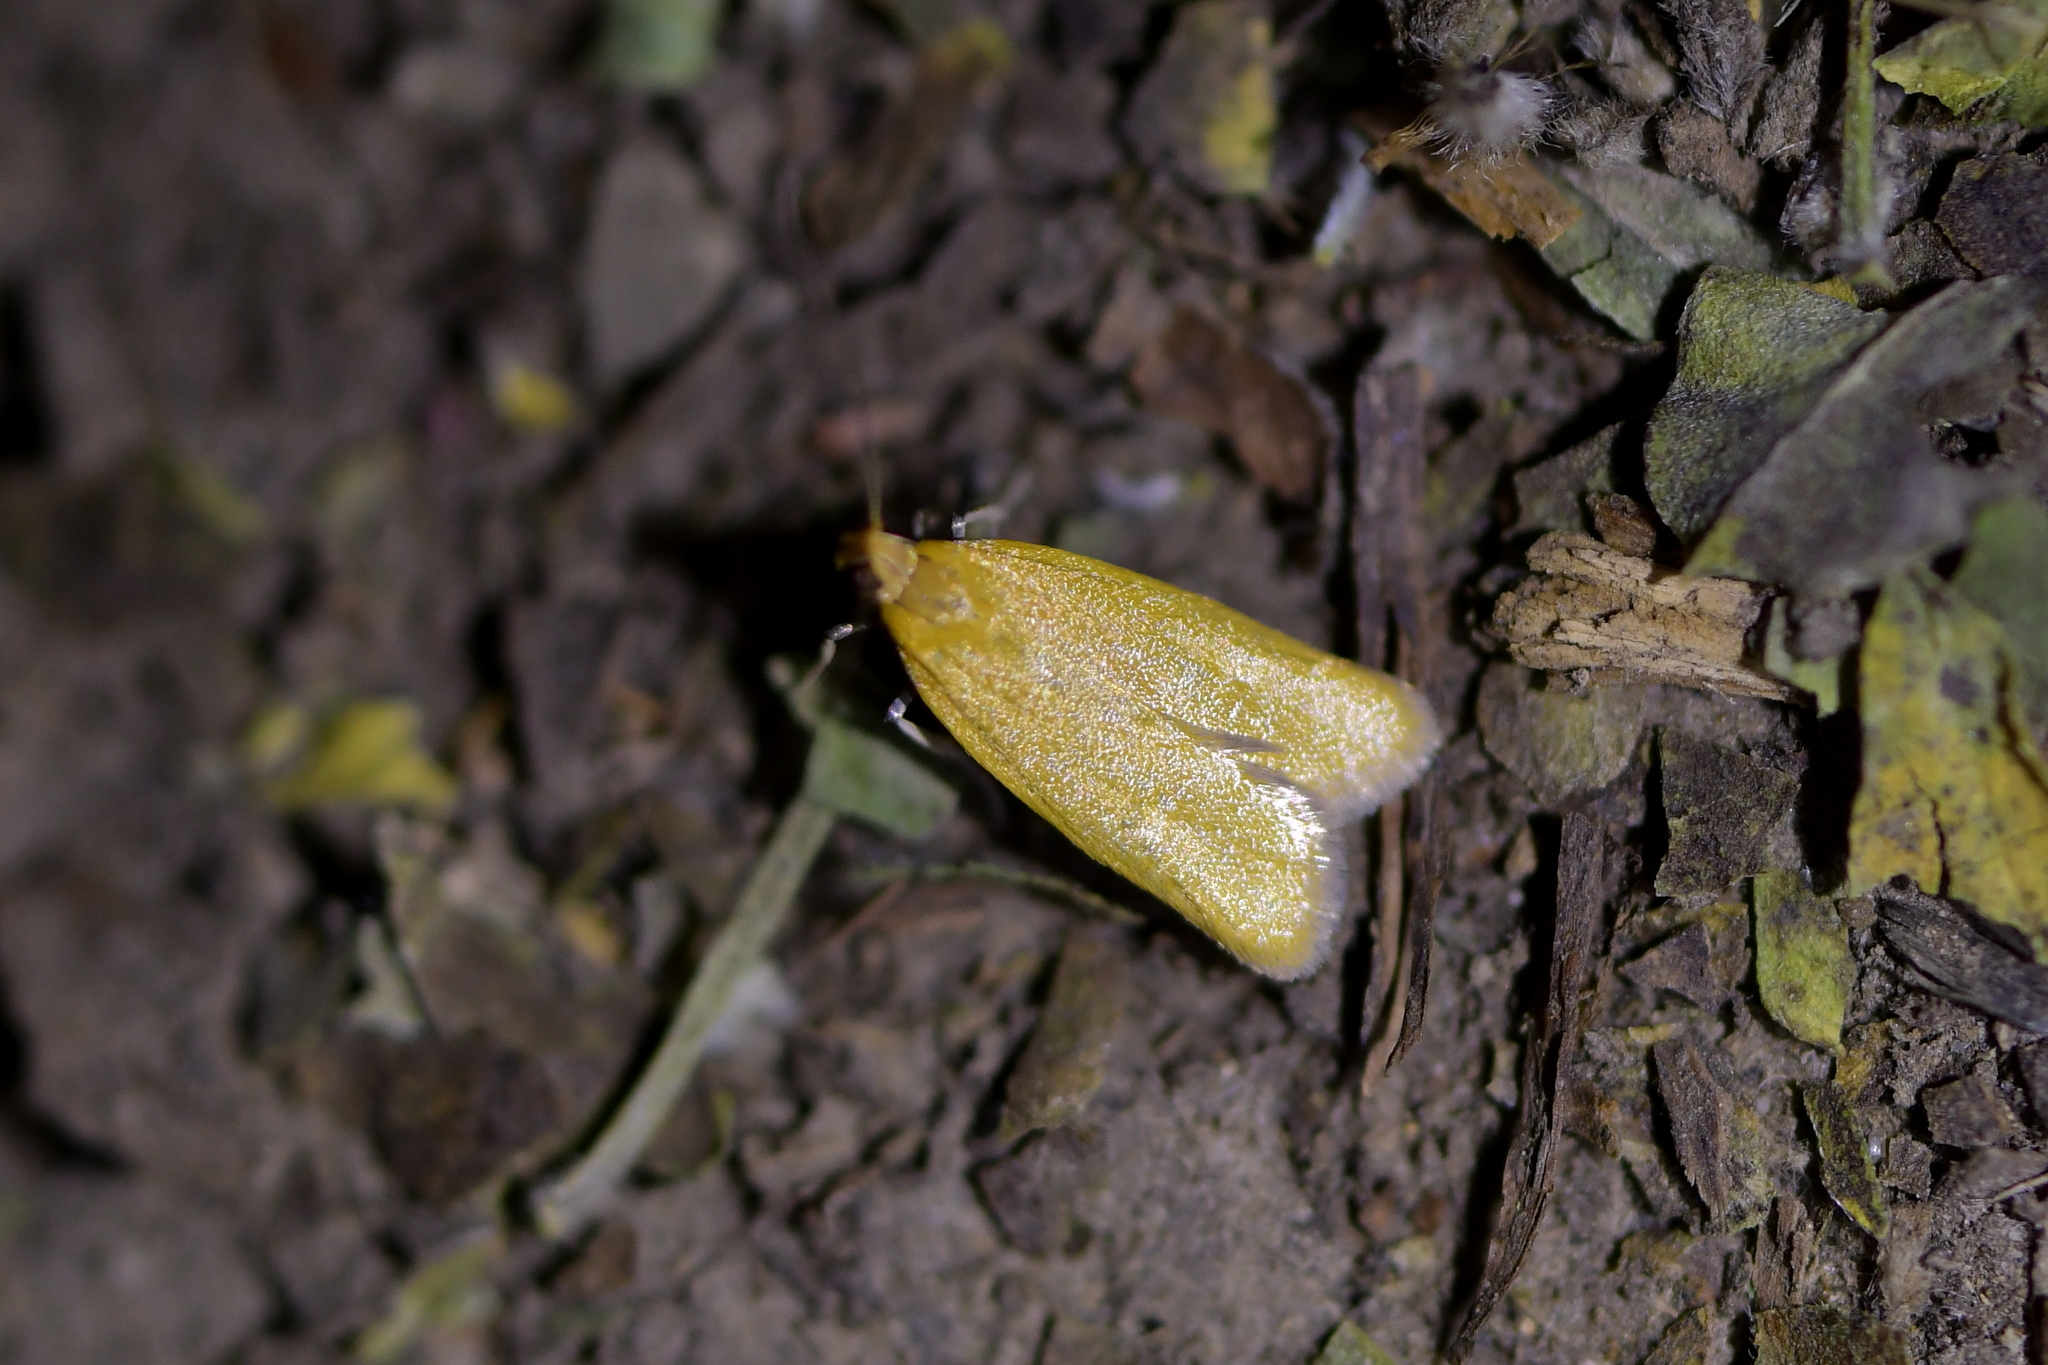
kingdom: Animalia
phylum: Arthropoda
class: Insecta
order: Lepidoptera
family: Oecophoridae
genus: Gymnobathra
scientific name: Gymnobathra parca
